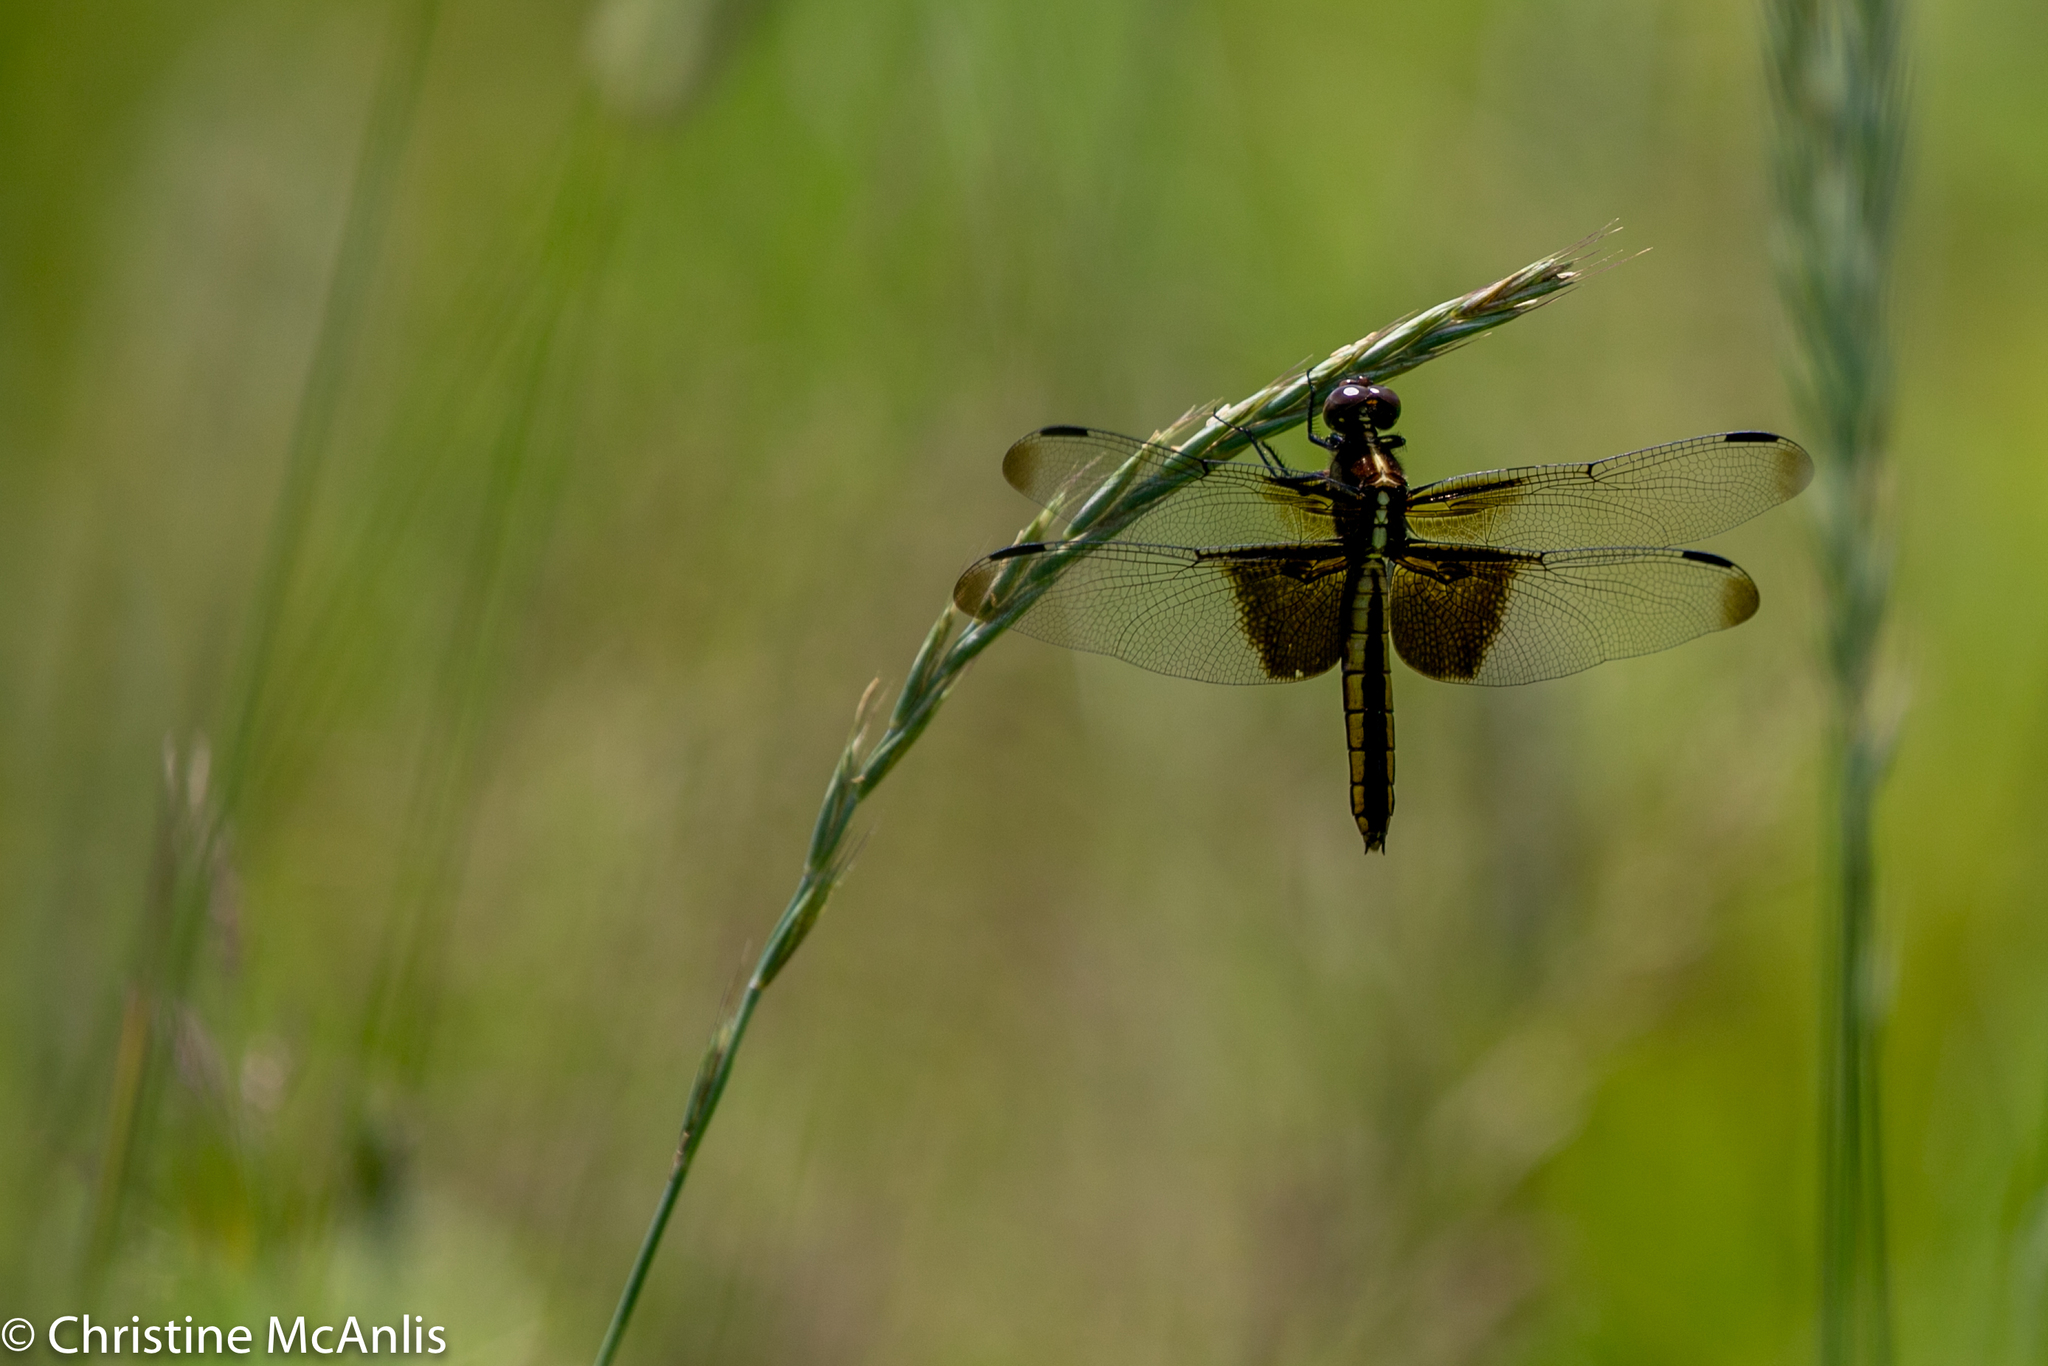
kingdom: Animalia
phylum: Arthropoda
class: Insecta
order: Odonata
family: Libellulidae
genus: Libellula
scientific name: Libellula luctuosa
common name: Widow skimmer
